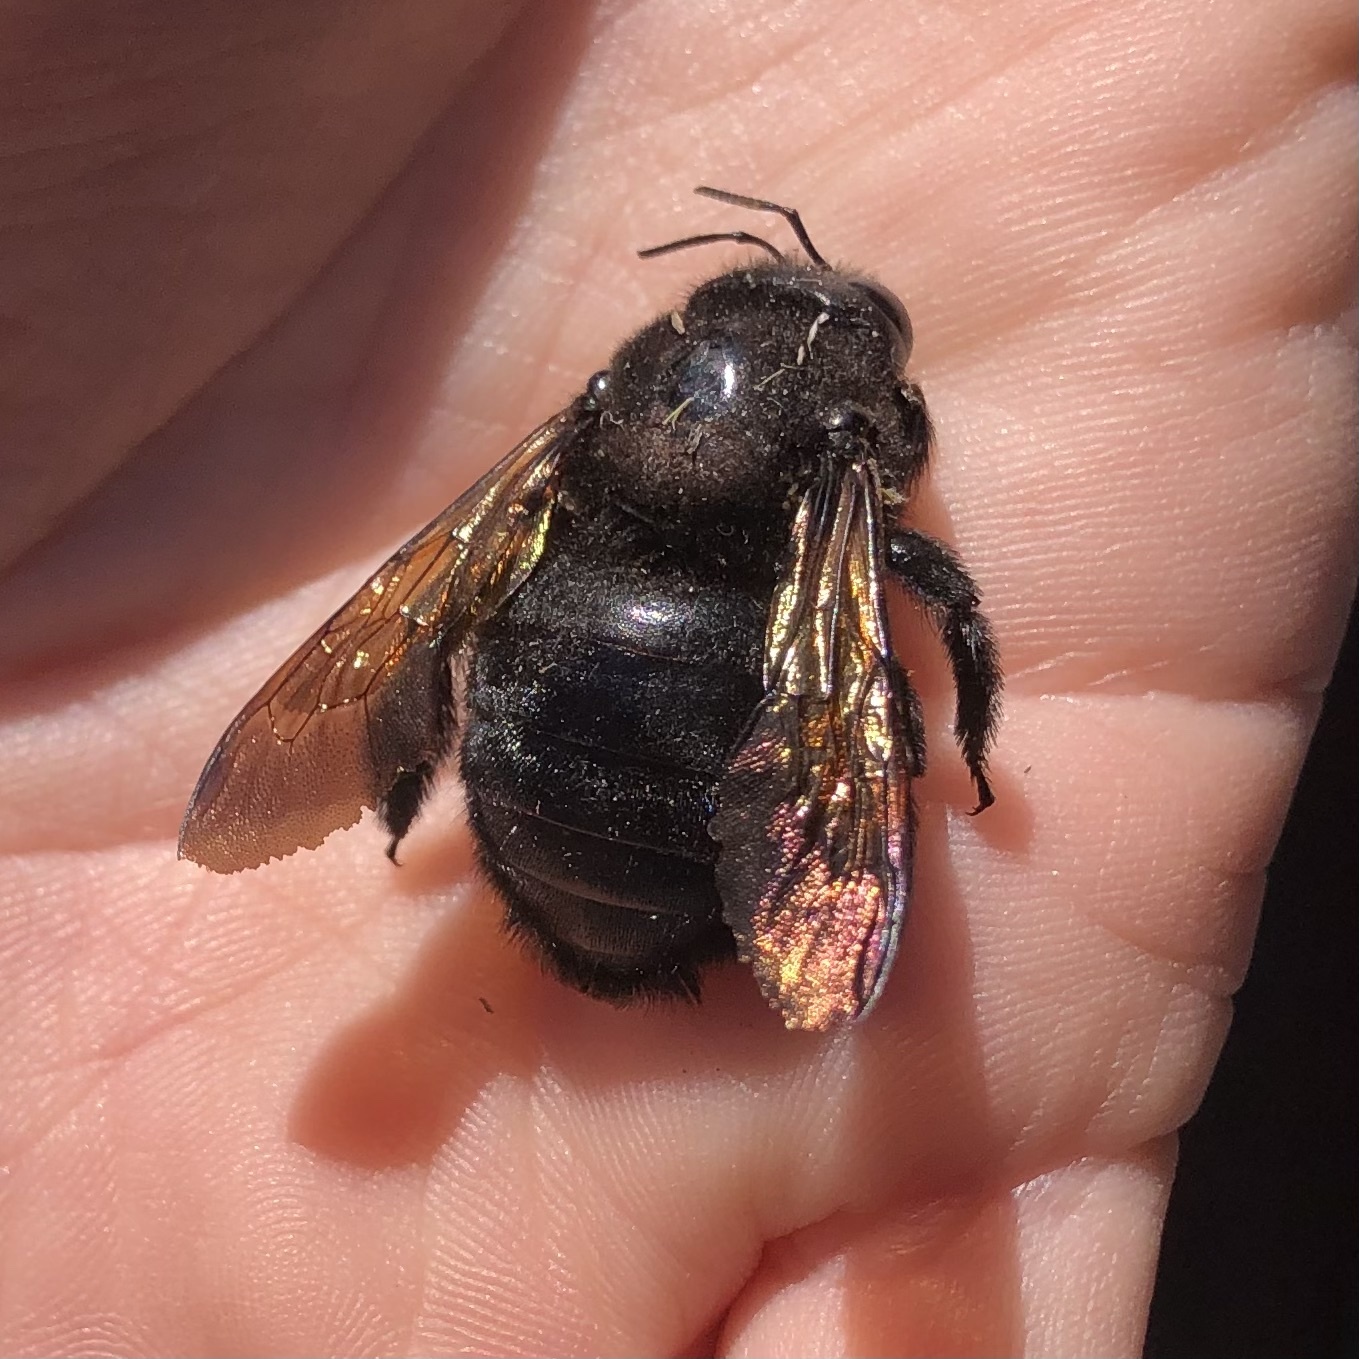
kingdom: Animalia
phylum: Arthropoda
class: Insecta
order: Hymenoptera
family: Apidae
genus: Xylocopa
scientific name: Xylocopa sonorina
